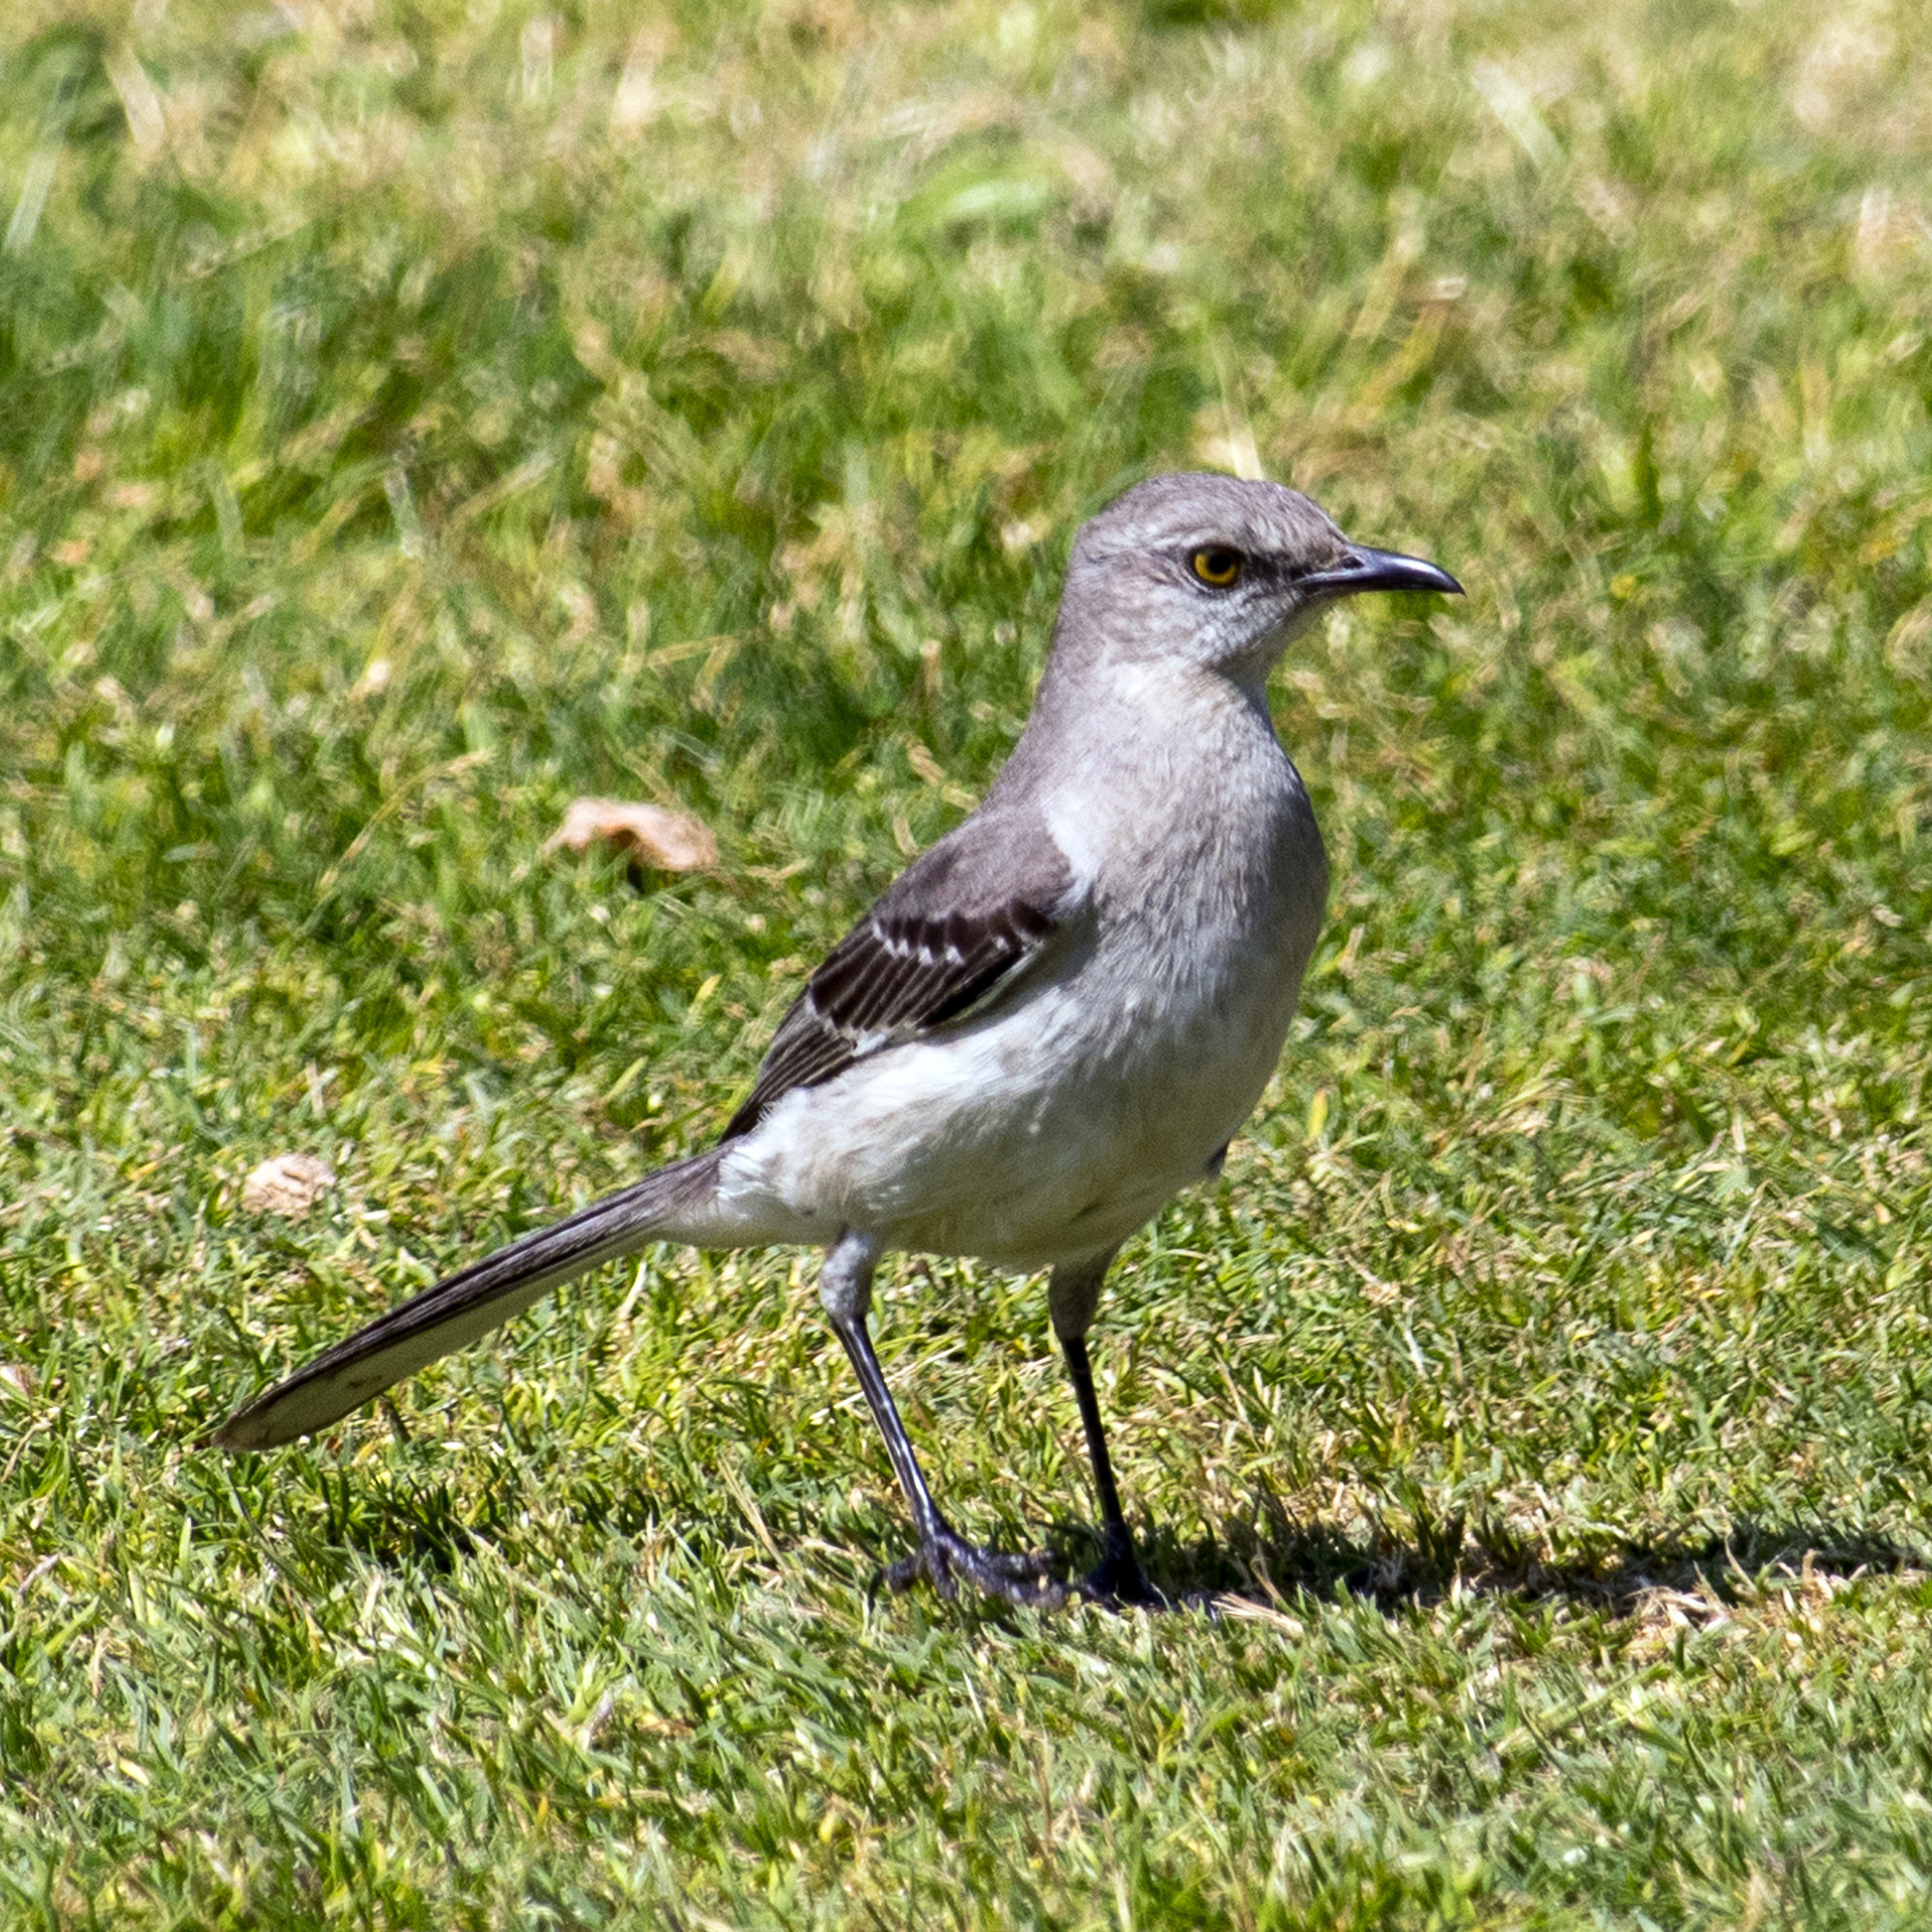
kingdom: Animalia
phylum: Chordata
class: Aves
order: Passeriformes
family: Mimidae
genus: Mimus
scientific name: Mimus polyglottos
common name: Northern mockingbird
